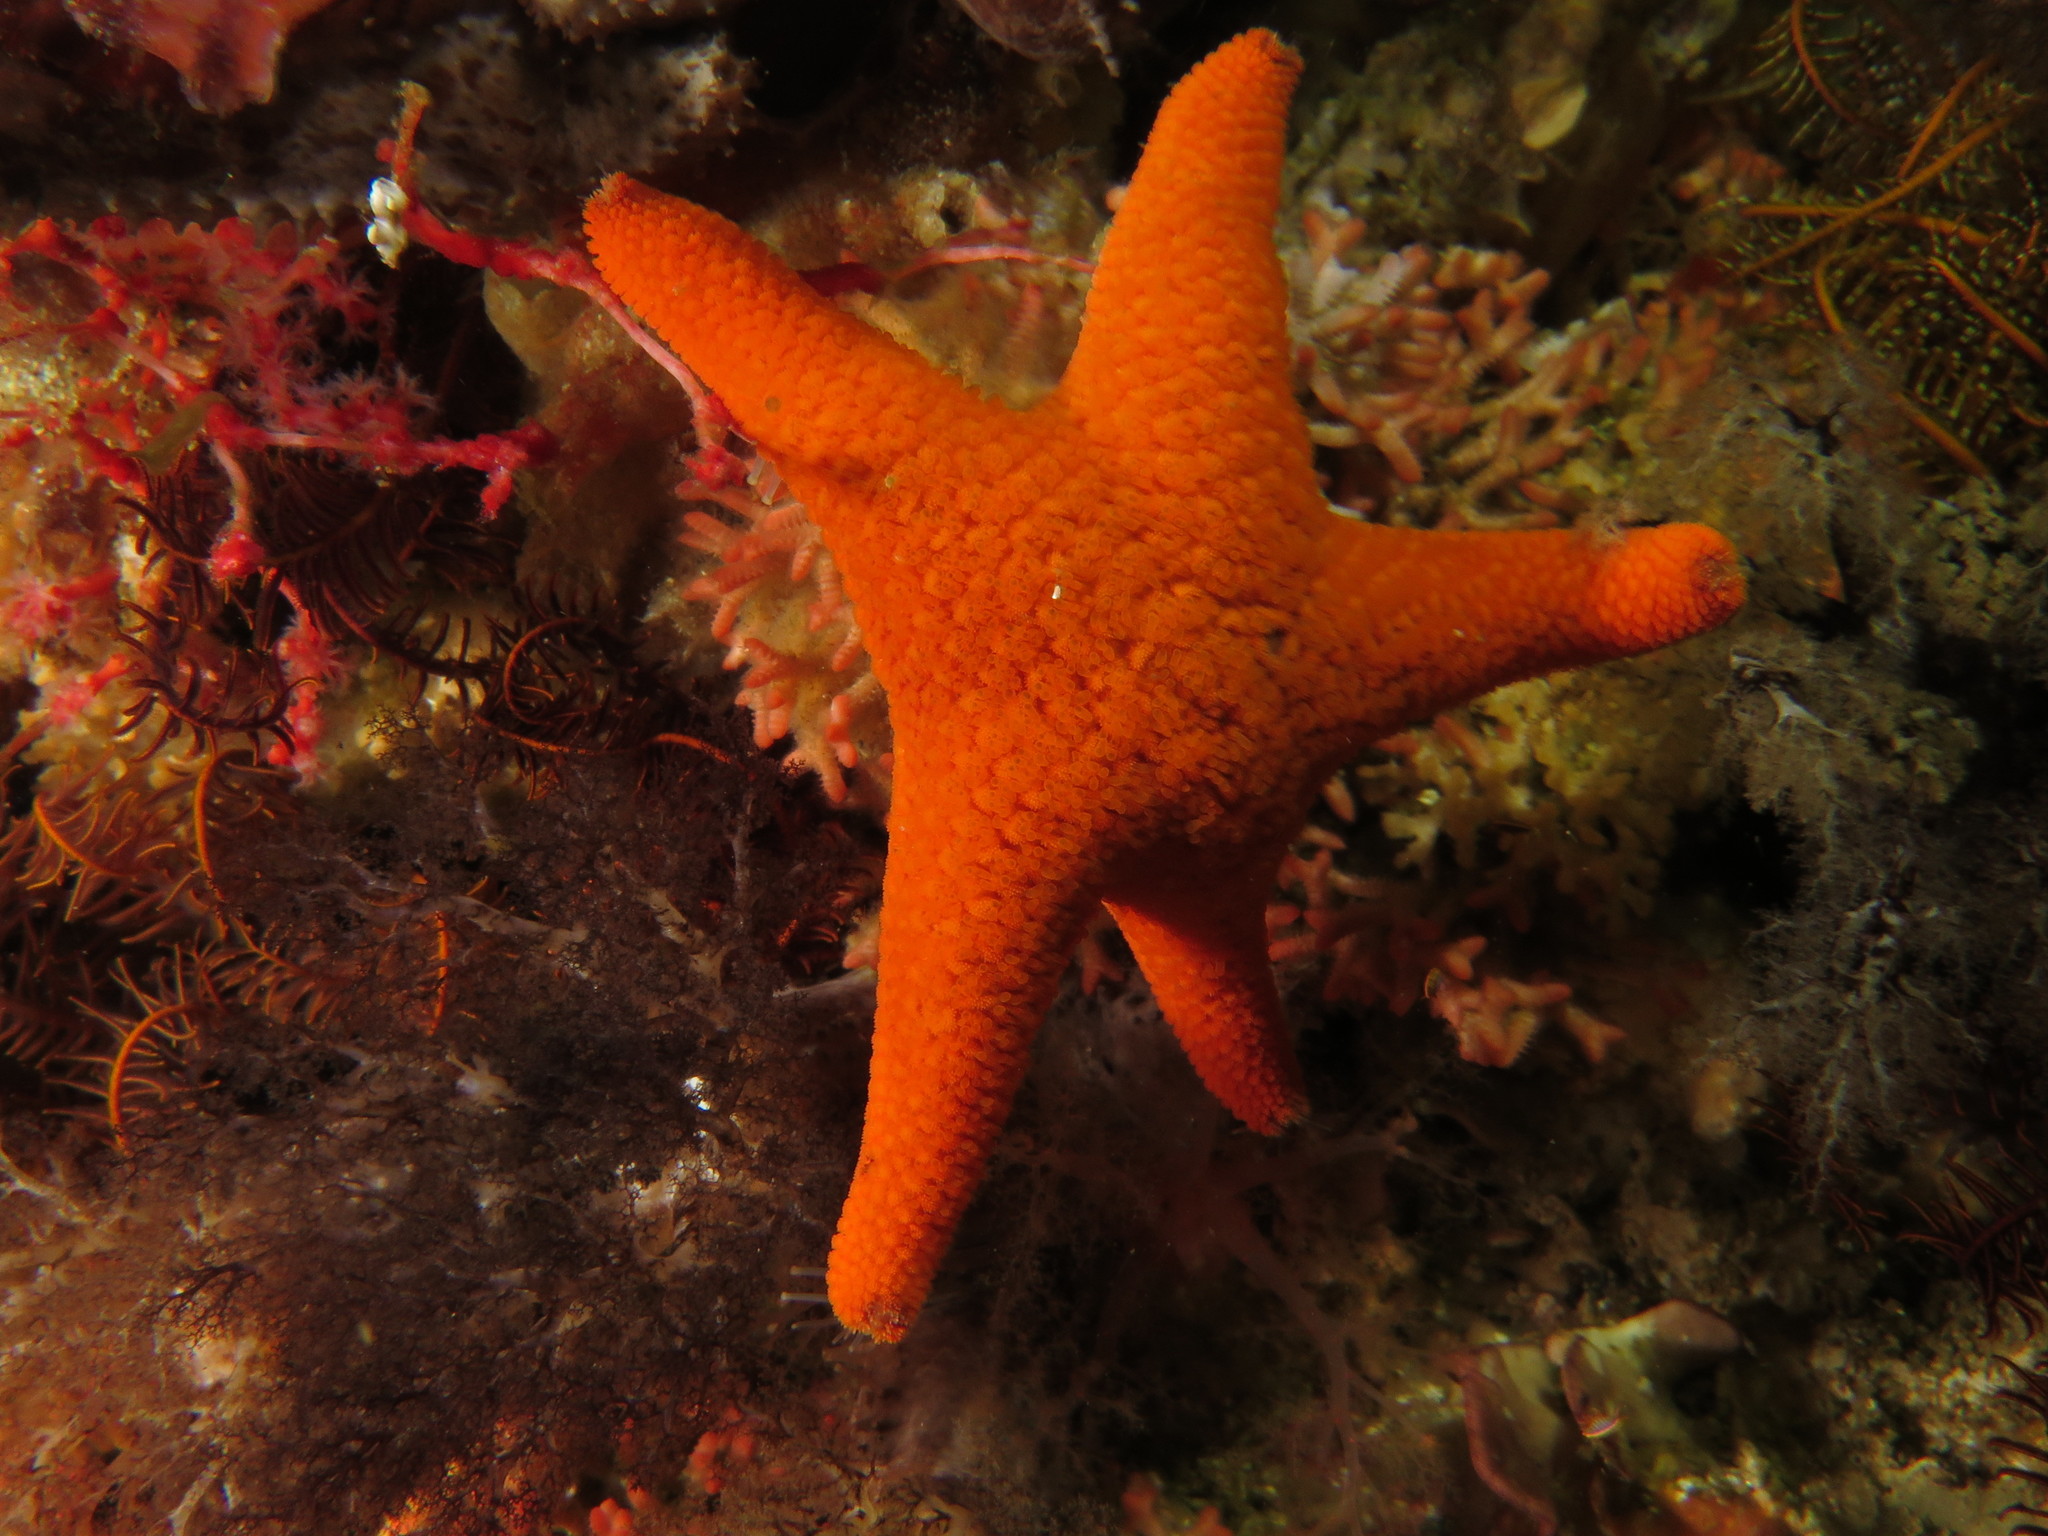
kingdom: Animalia
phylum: Echinodermata
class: Asteroidea
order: Valvatida
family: Asterinidae
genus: Callopatiria
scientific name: Callopatiria granifera
